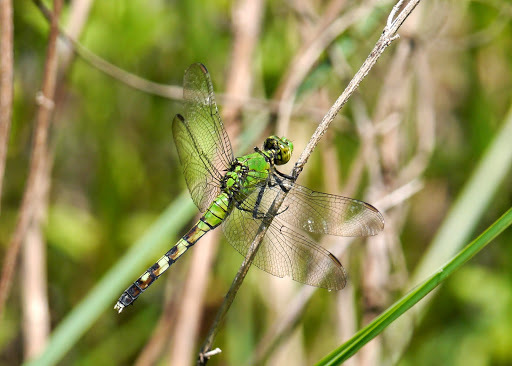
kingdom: Animalia
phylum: Arthropoda
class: Insecta
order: Odonata
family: Libellulidae
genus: Erythemis
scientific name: Erythemis simplicicollis
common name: Eastern pondhawk
